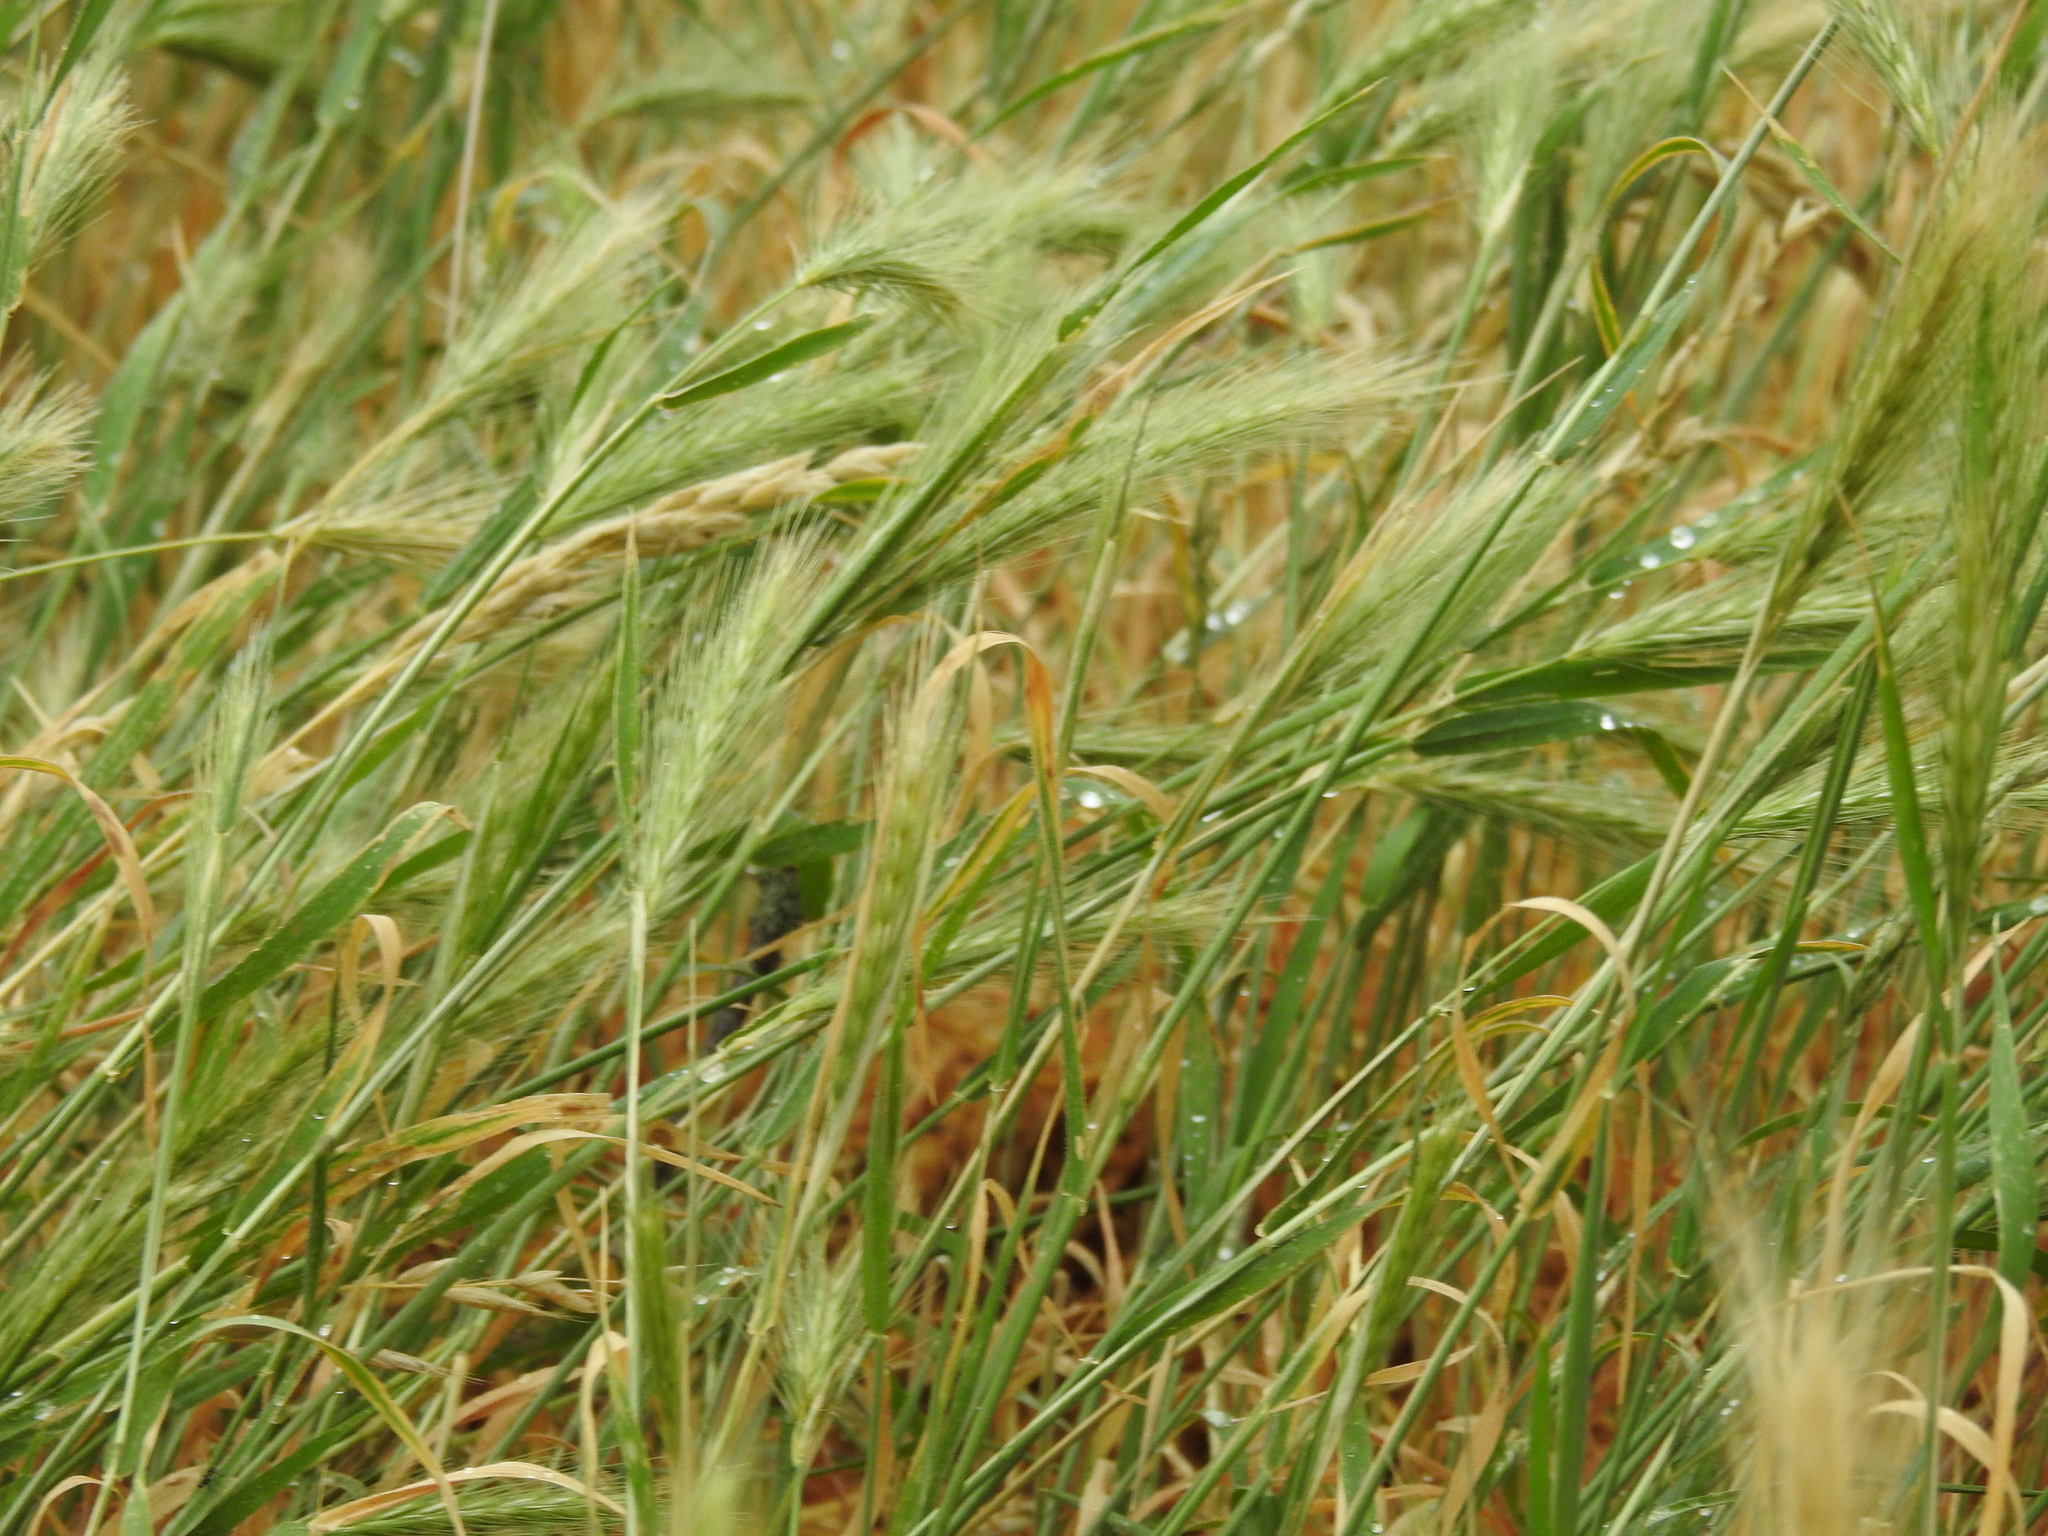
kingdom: Plantae
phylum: Tracheophyta
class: Liliopsida
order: Poales
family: Poaceae
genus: Hordeum
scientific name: Hordeum murinum
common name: Wall barley
